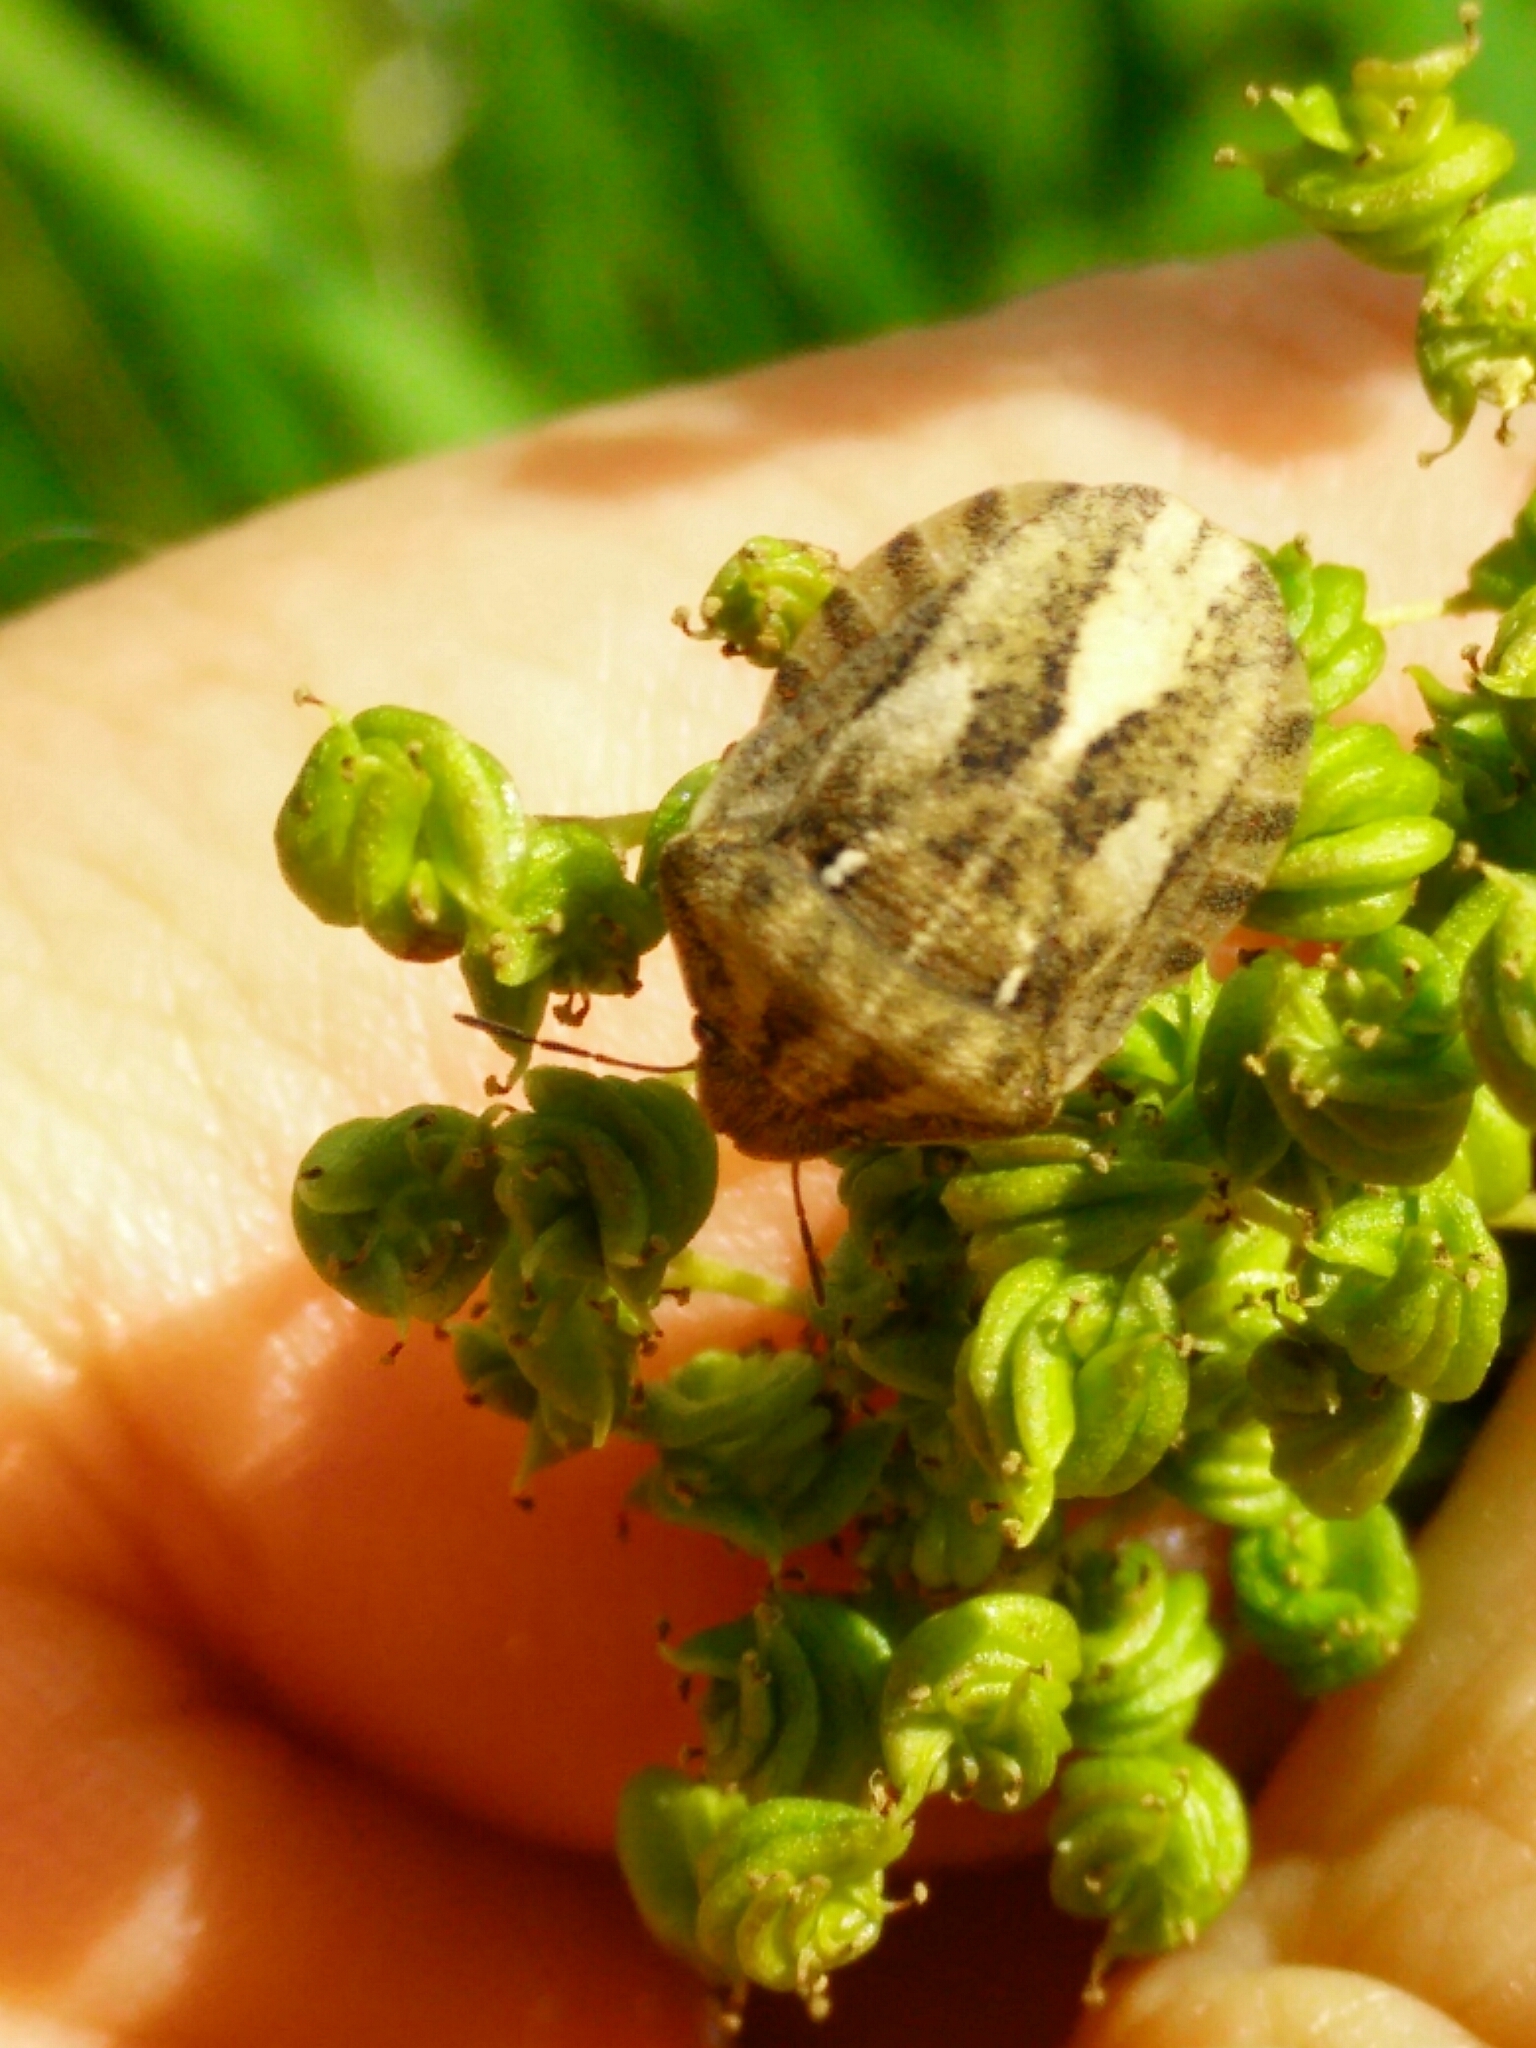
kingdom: Animalia
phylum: Arthropoda
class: Insecta
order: Hemiptera
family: Scutelleridae
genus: Eurygaster
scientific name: Eurygaster testudinaria
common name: Tortoise bug
